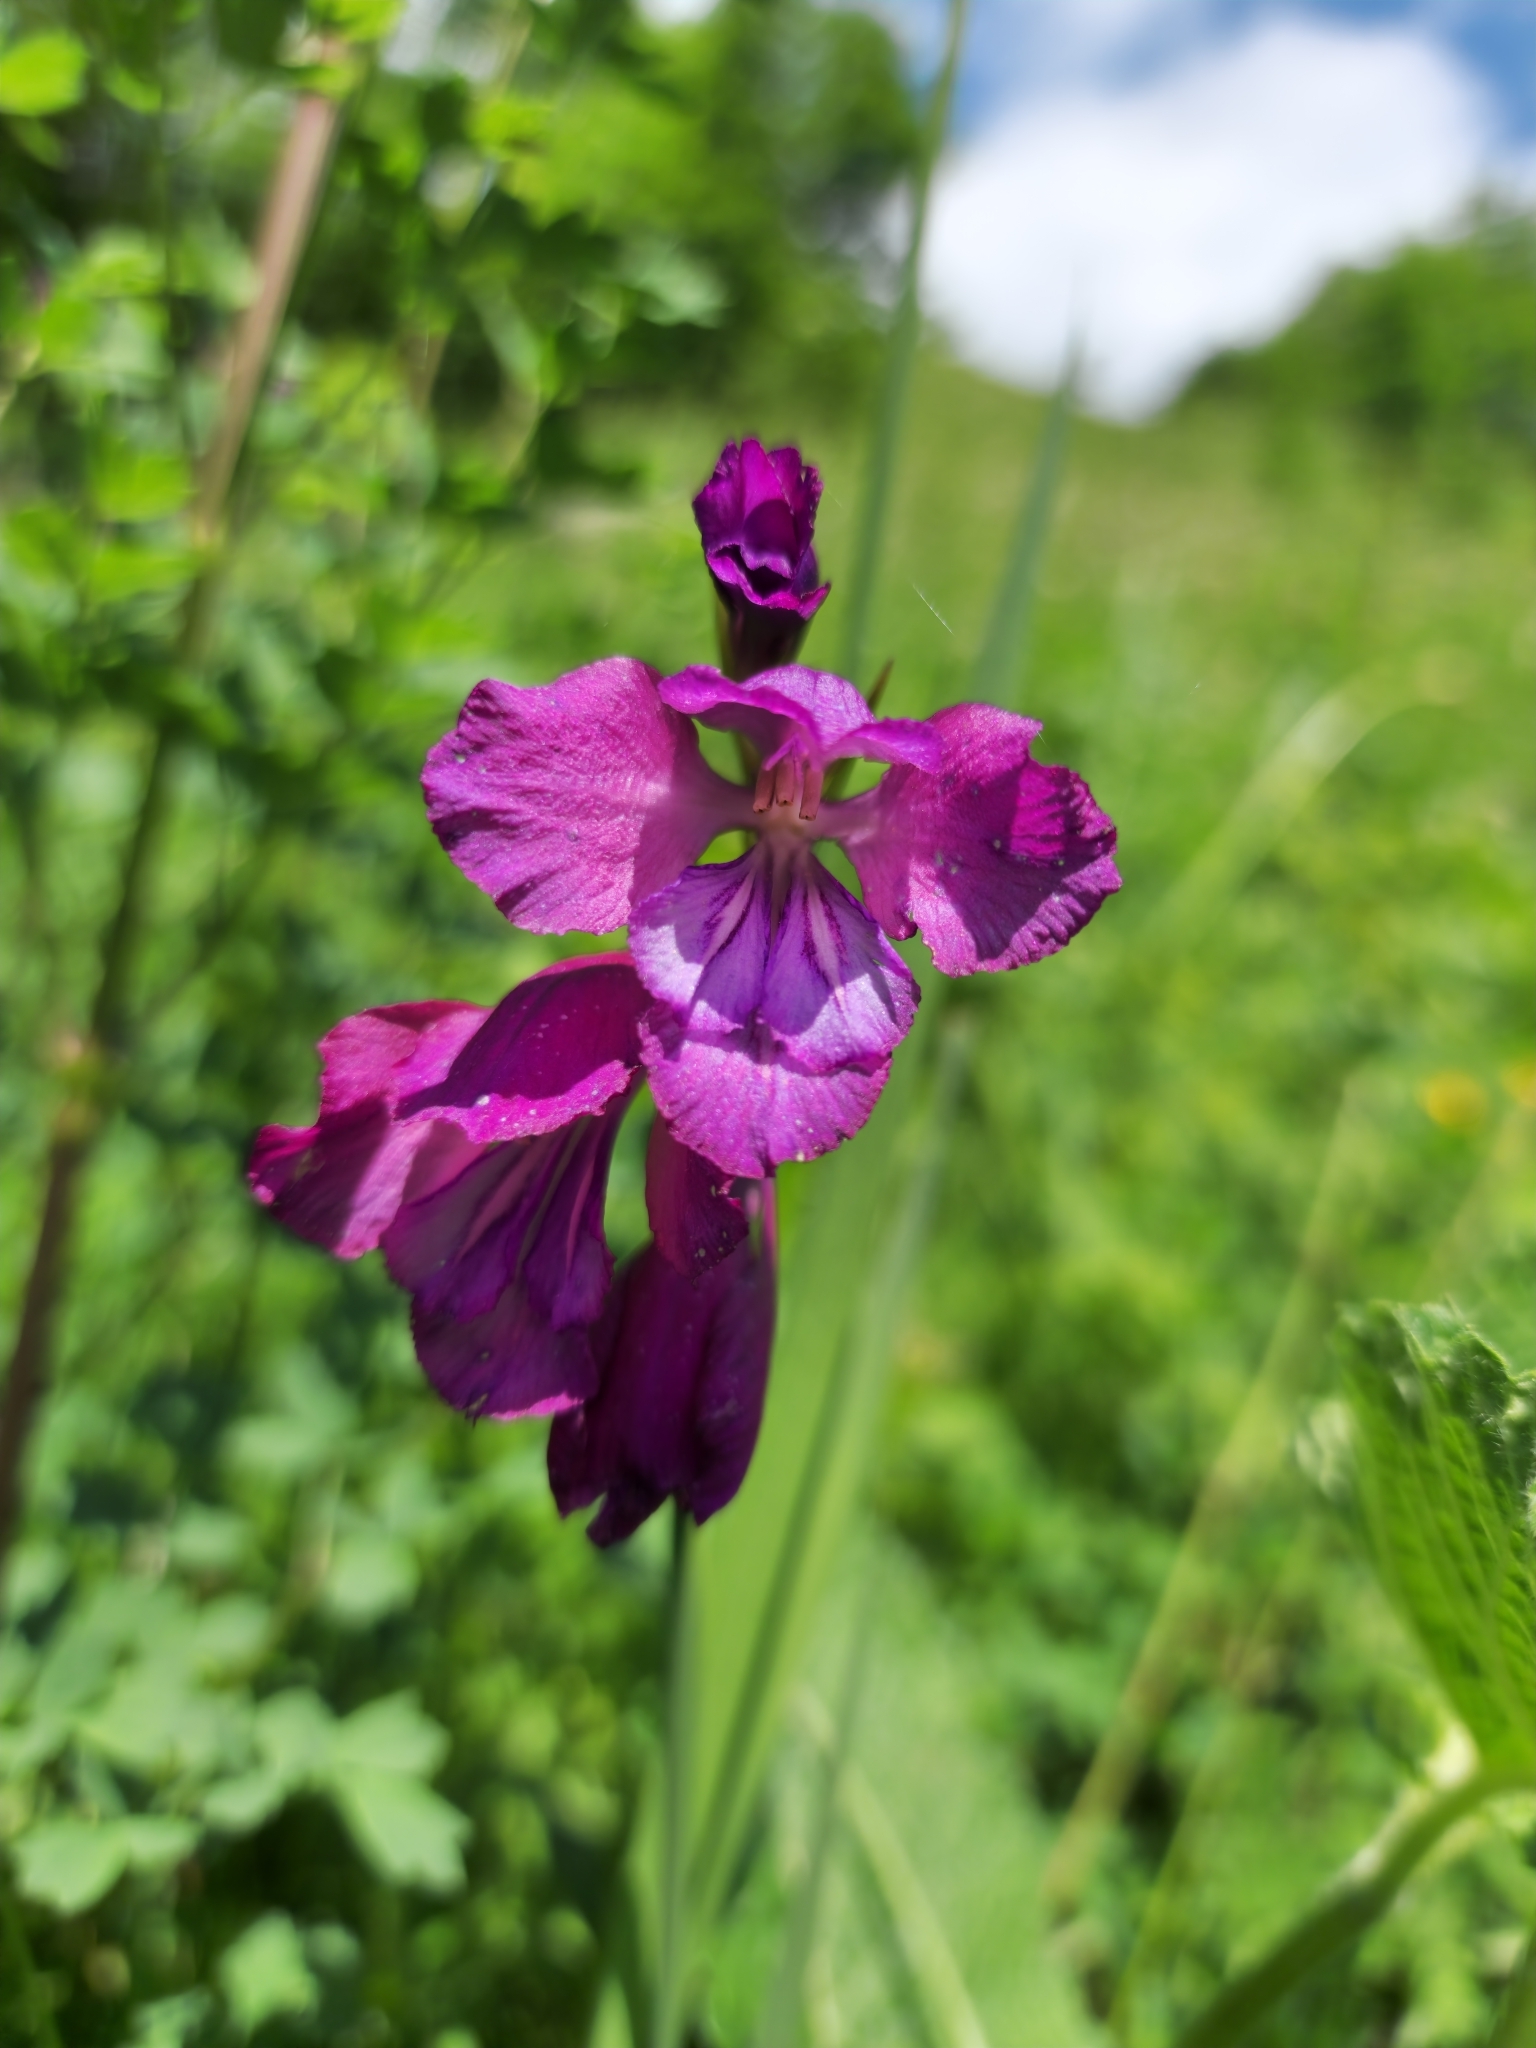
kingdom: Plantae
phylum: Tracheophyta
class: Liliopsida
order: Asparagales
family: Iridaceae
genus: Gladiolus
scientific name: Gladiolus tenuis
